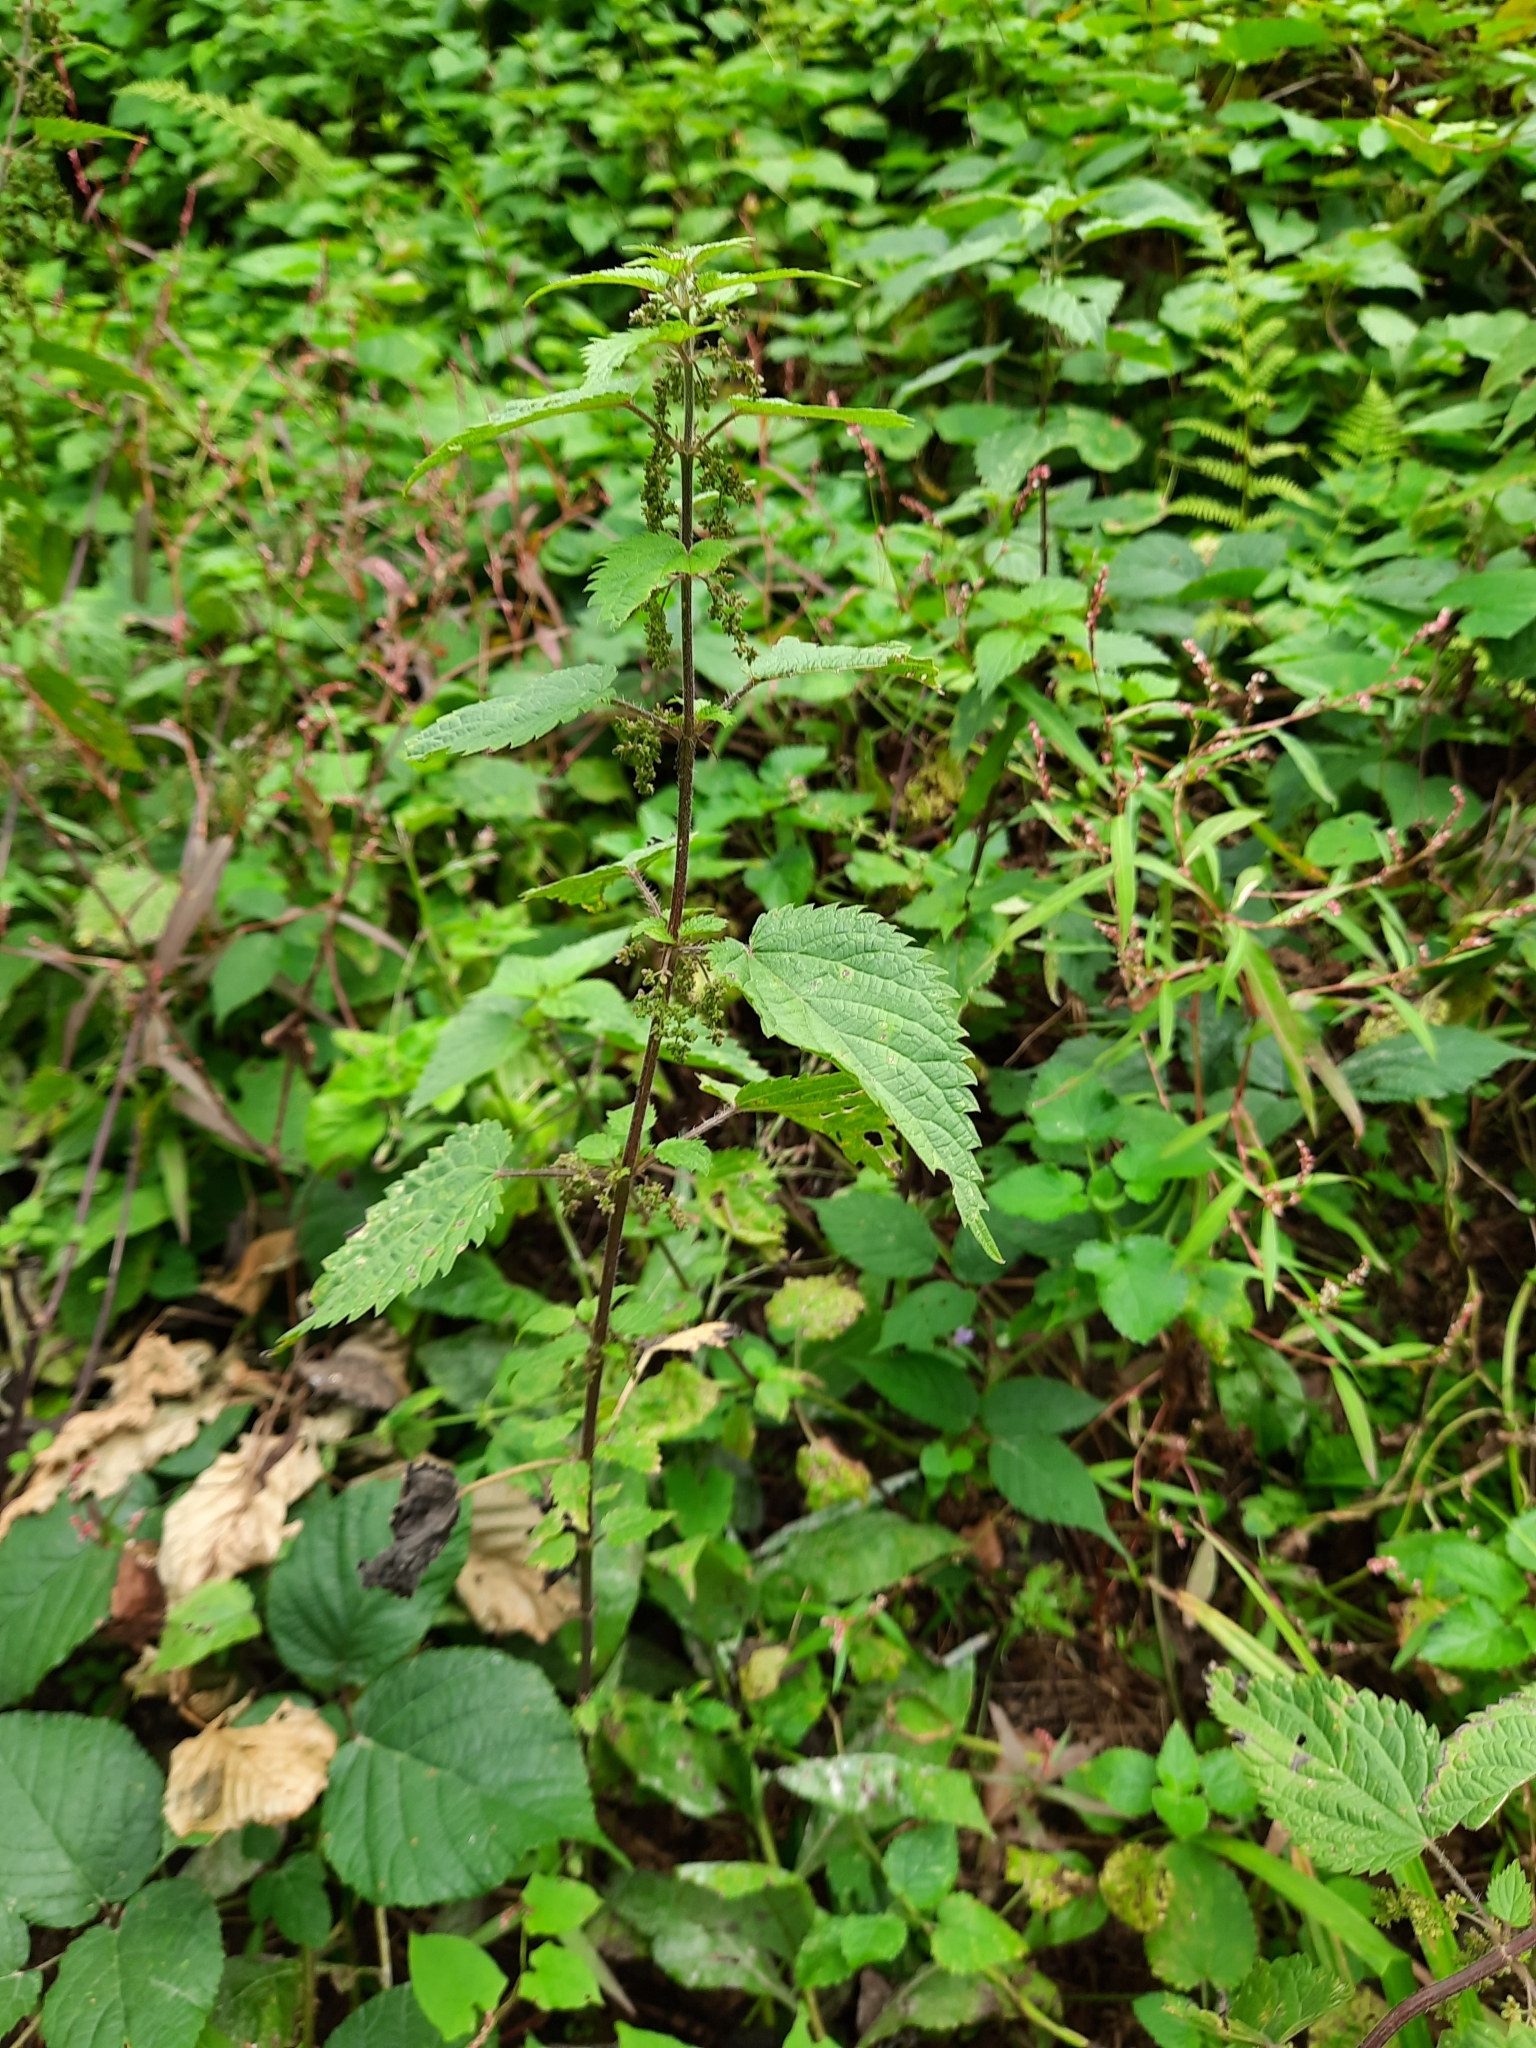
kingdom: Plantae
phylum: Tracheophyta
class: Magnoliopsida
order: Rosales
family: Urticaceae
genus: Urtica
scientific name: Urtica dioica
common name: Common nettle
